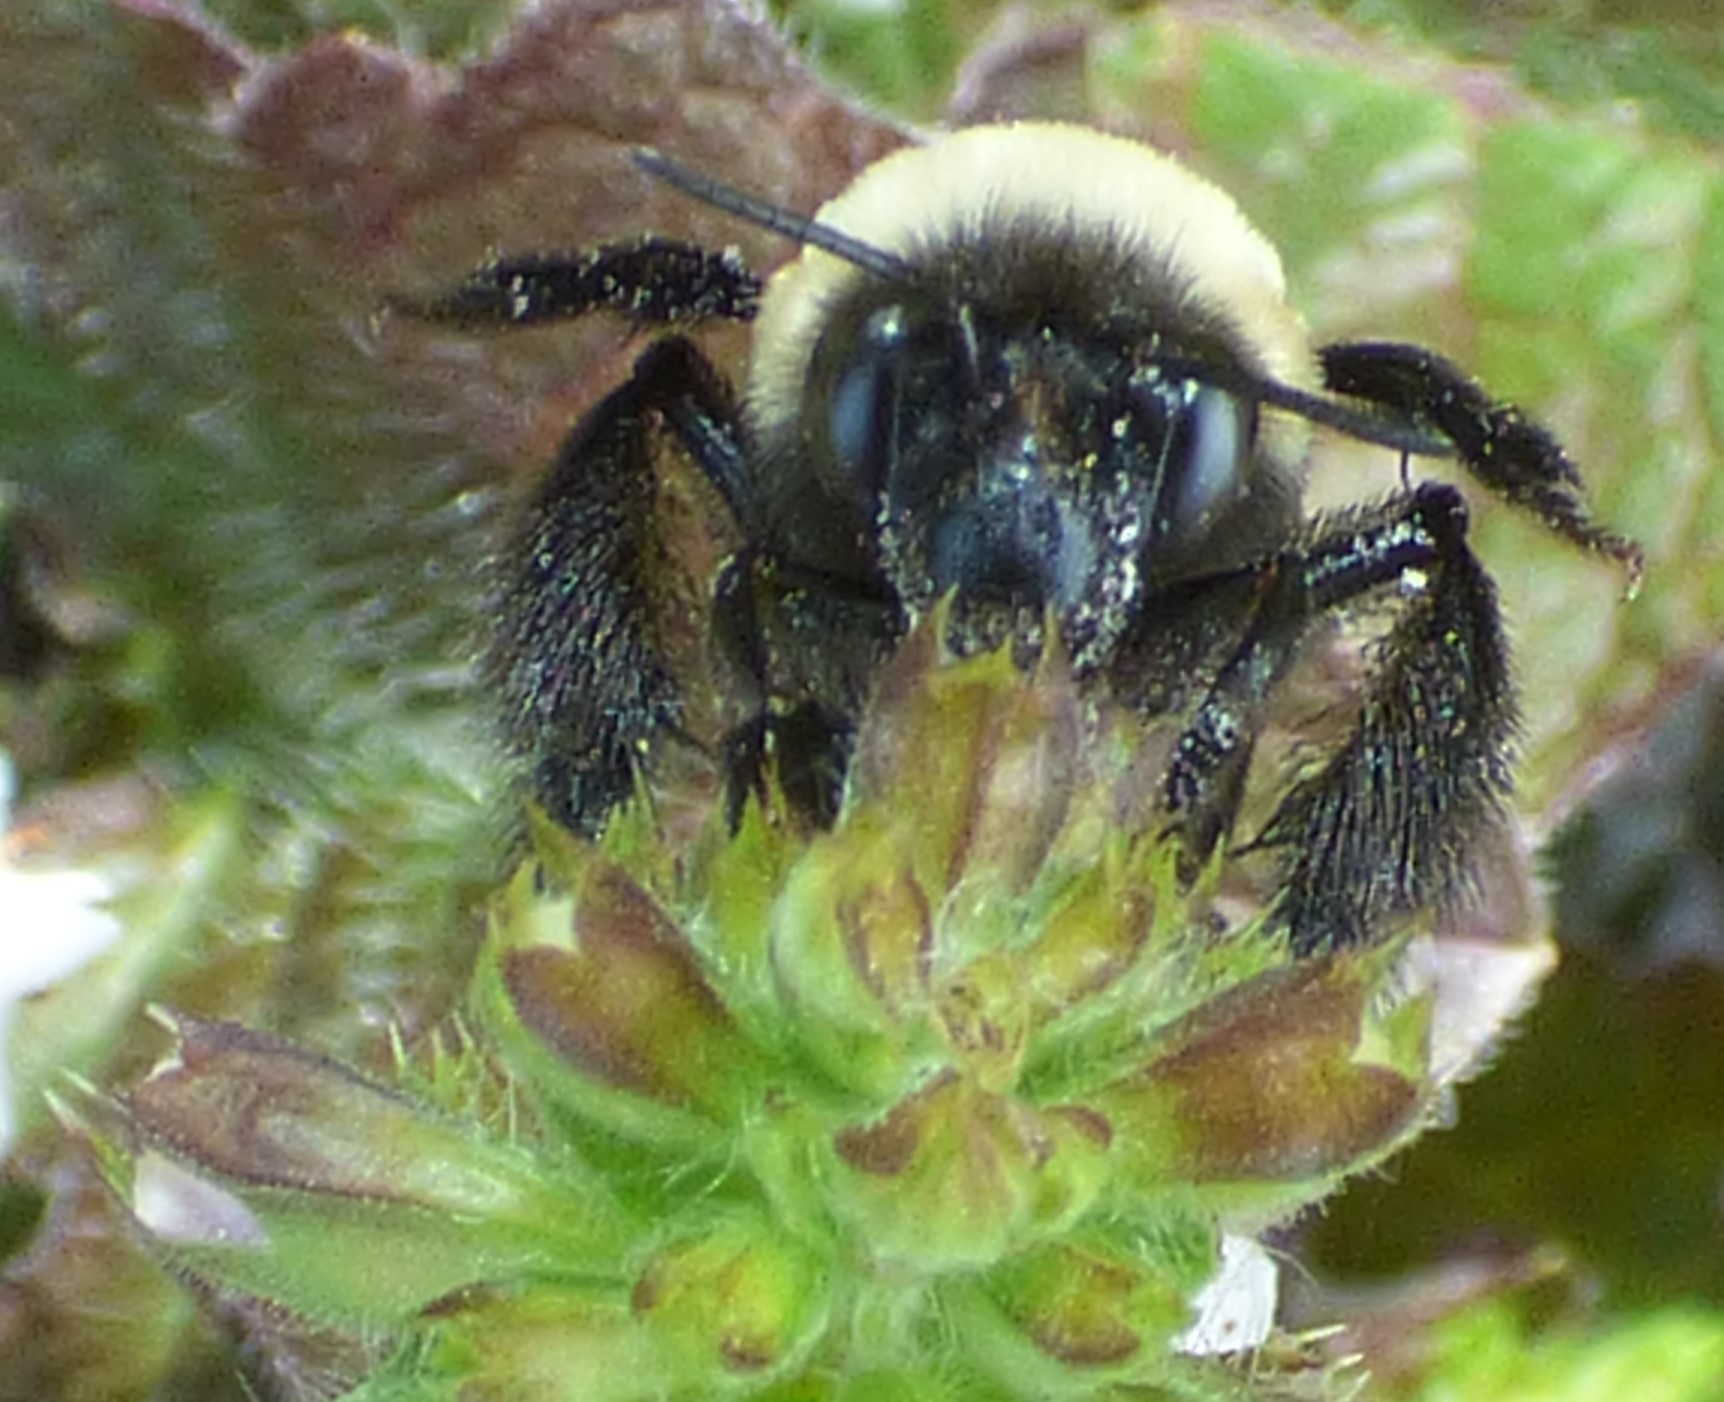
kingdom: Animalia
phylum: Arthropoda
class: Insecta
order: Hymenoptera
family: Apidae
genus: Habropoda
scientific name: Habropoda laboriosa
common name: Southeastern blueberry bee
